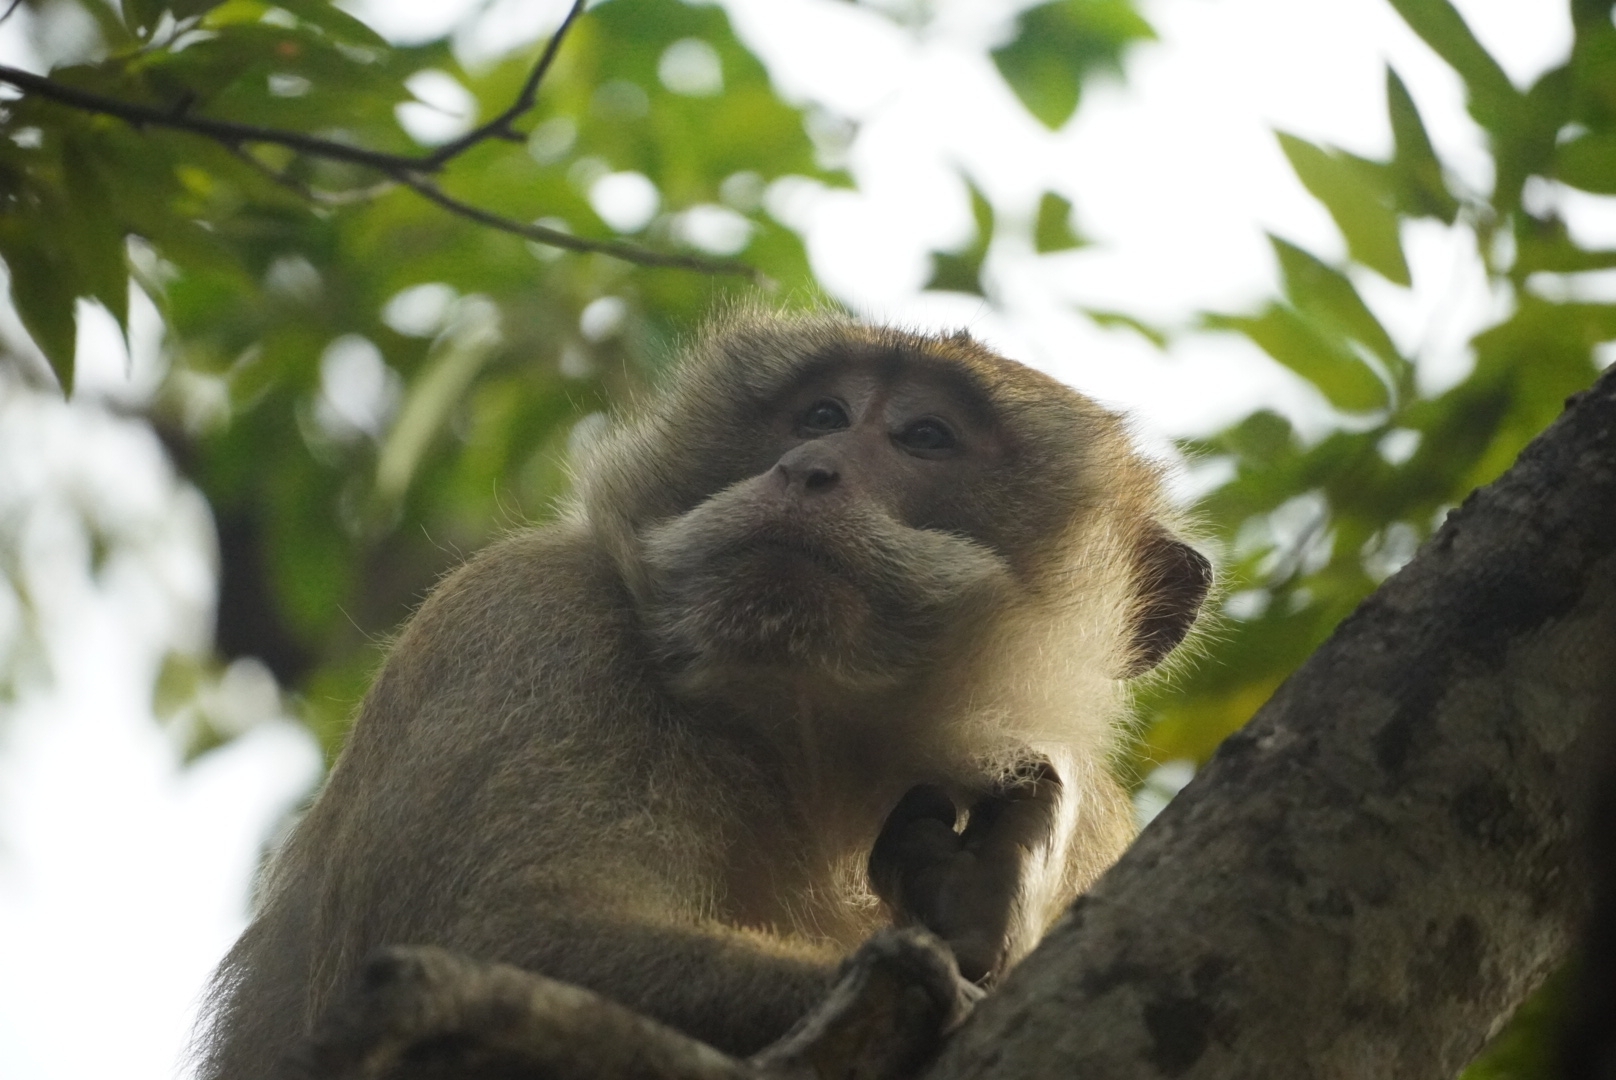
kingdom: Animalia
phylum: Chordata
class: Mammalia
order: Primates
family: Cercopithecidae
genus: Macaca
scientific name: Macaca fascicularis
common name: Crab-eating macaque
